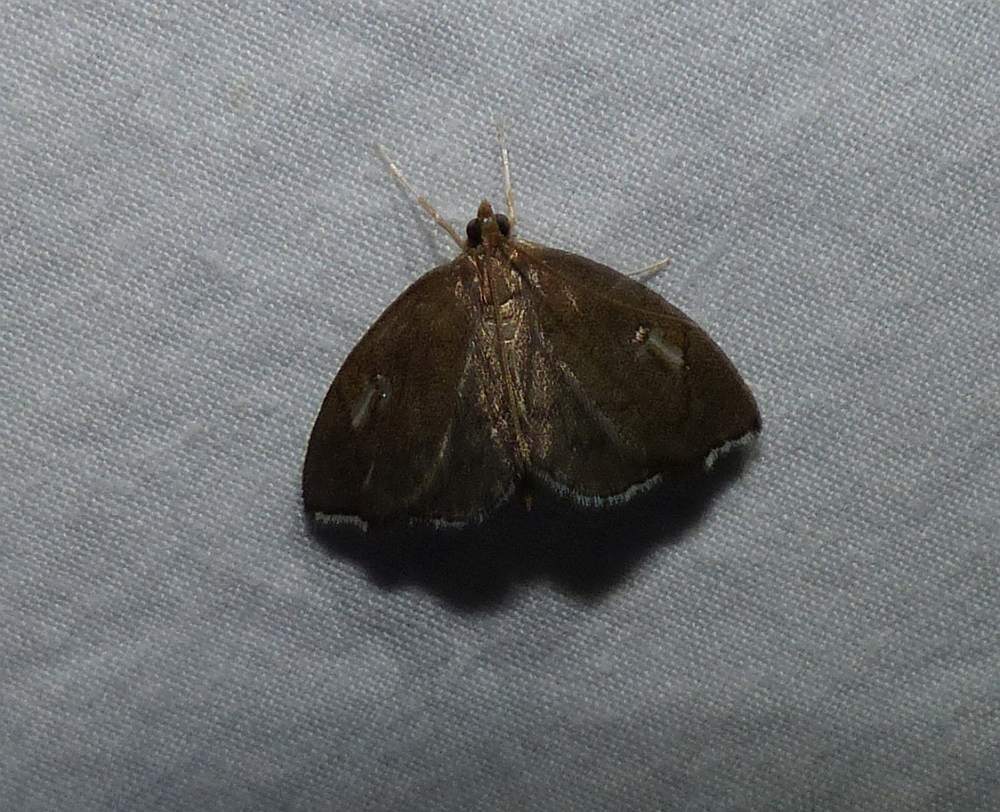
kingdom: Animalia
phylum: Arthropoda
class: Insecta
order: Lepidoptera
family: Crambidae
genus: Perispasta
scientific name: Perispasta caeculalis
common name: Titian peale's moth
